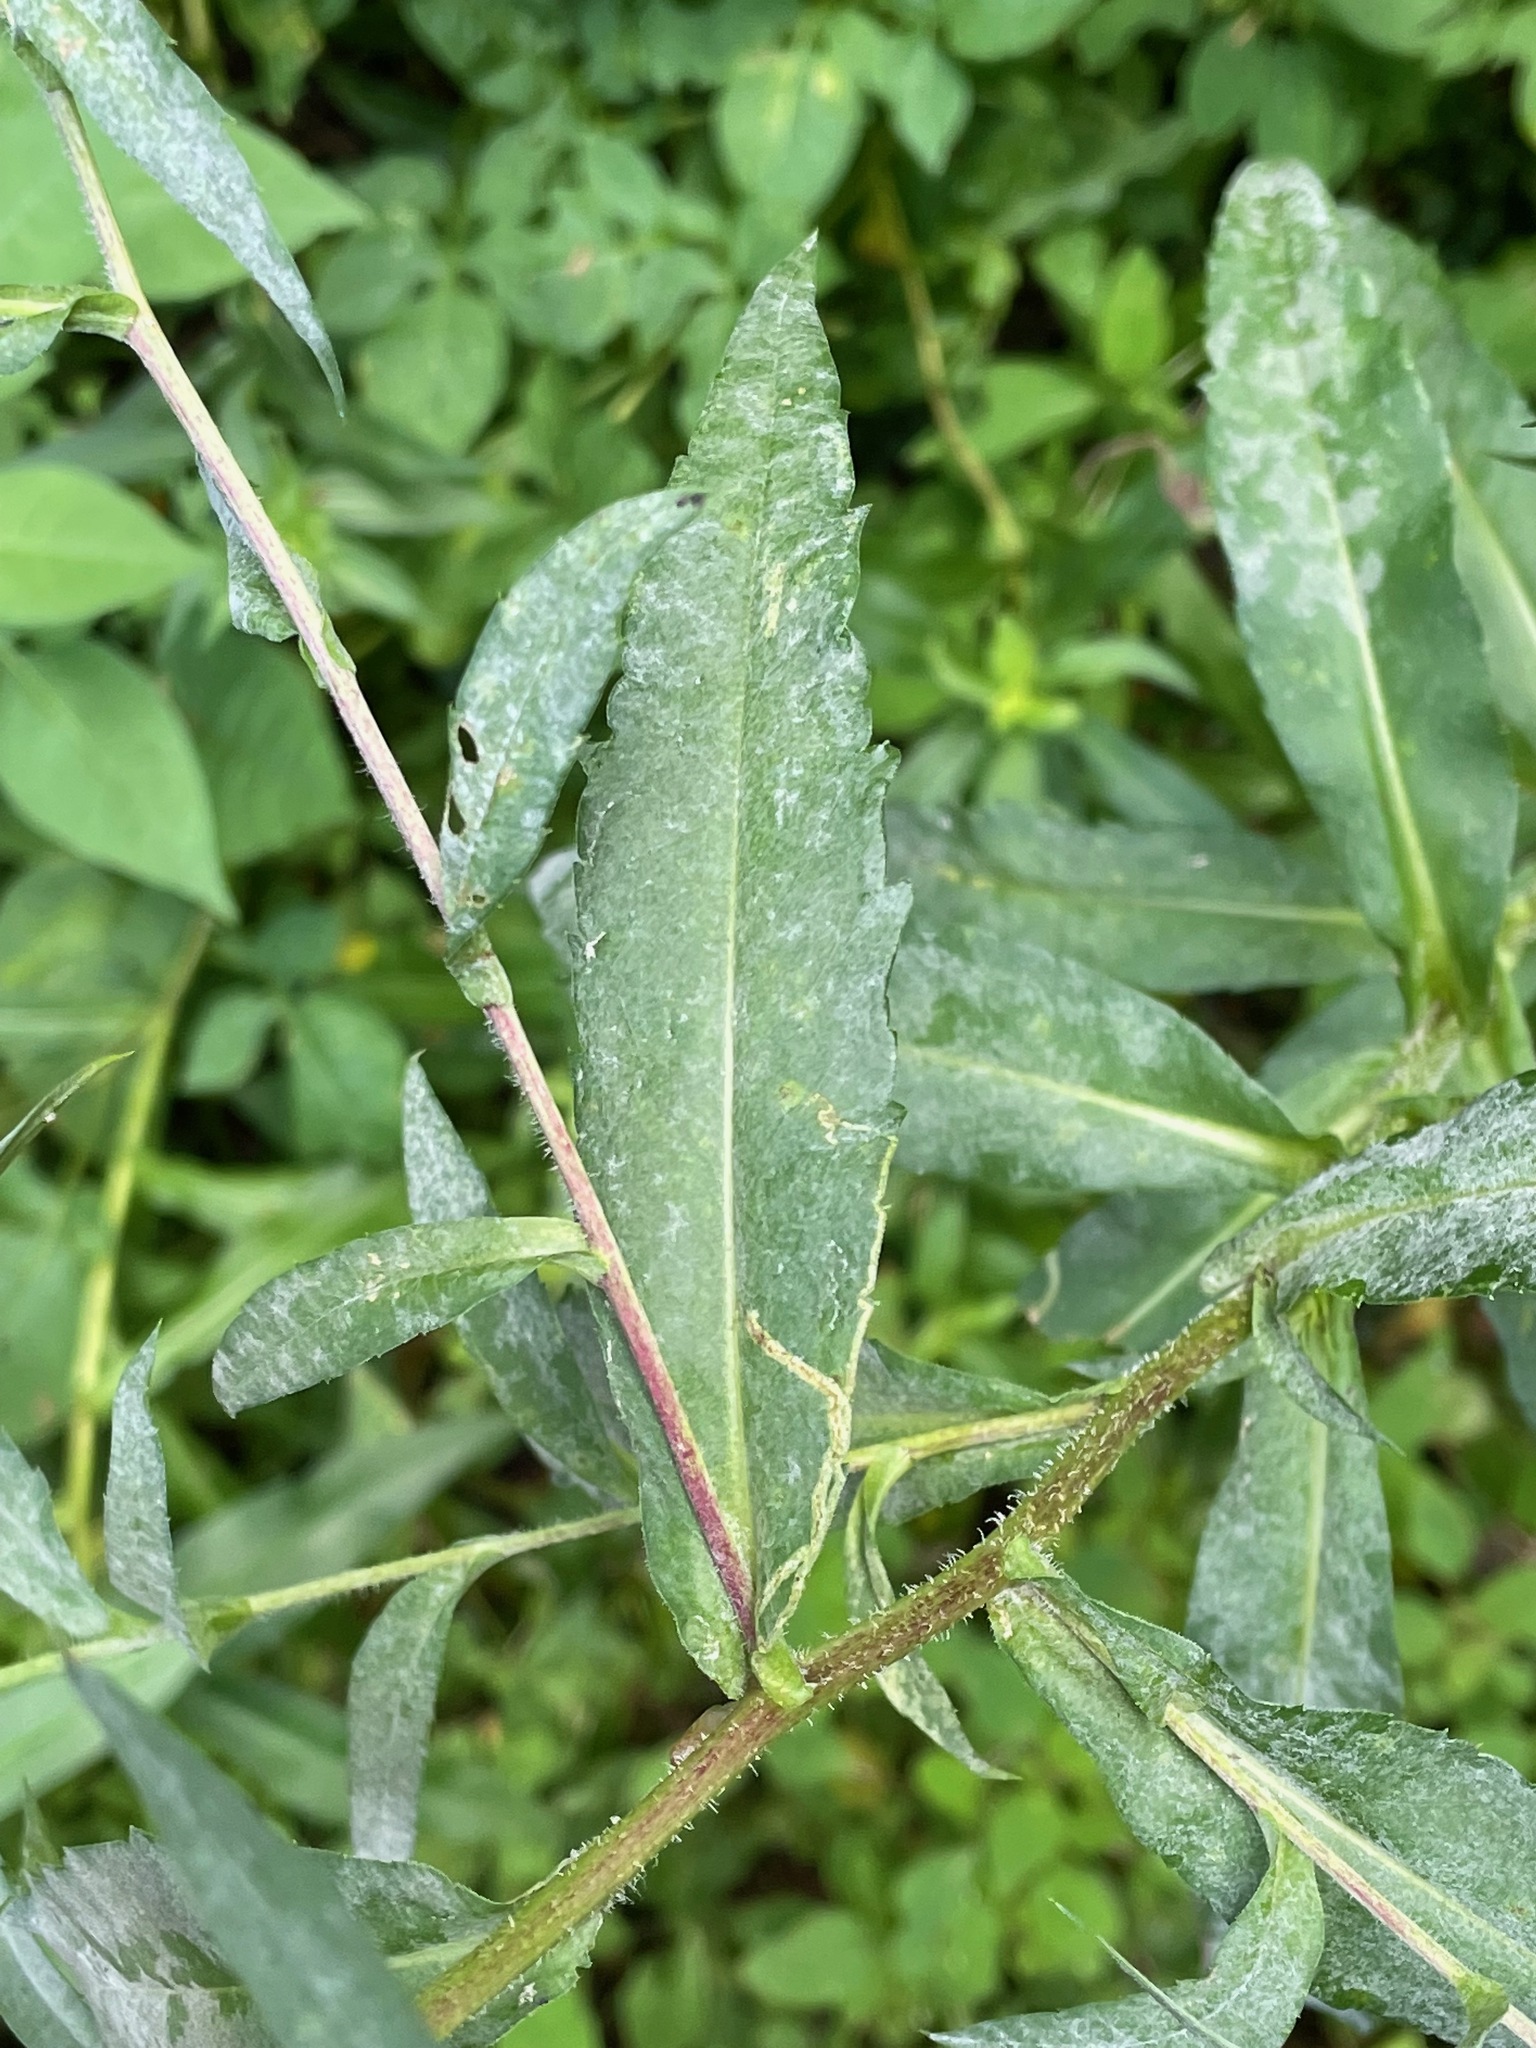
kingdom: Plantae
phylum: Tracheophyta
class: Magnoliopsida
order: Asterales
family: Asteraceae
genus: Symphyotrichum
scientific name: Symphyotrichum puniceum
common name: Bog aster
